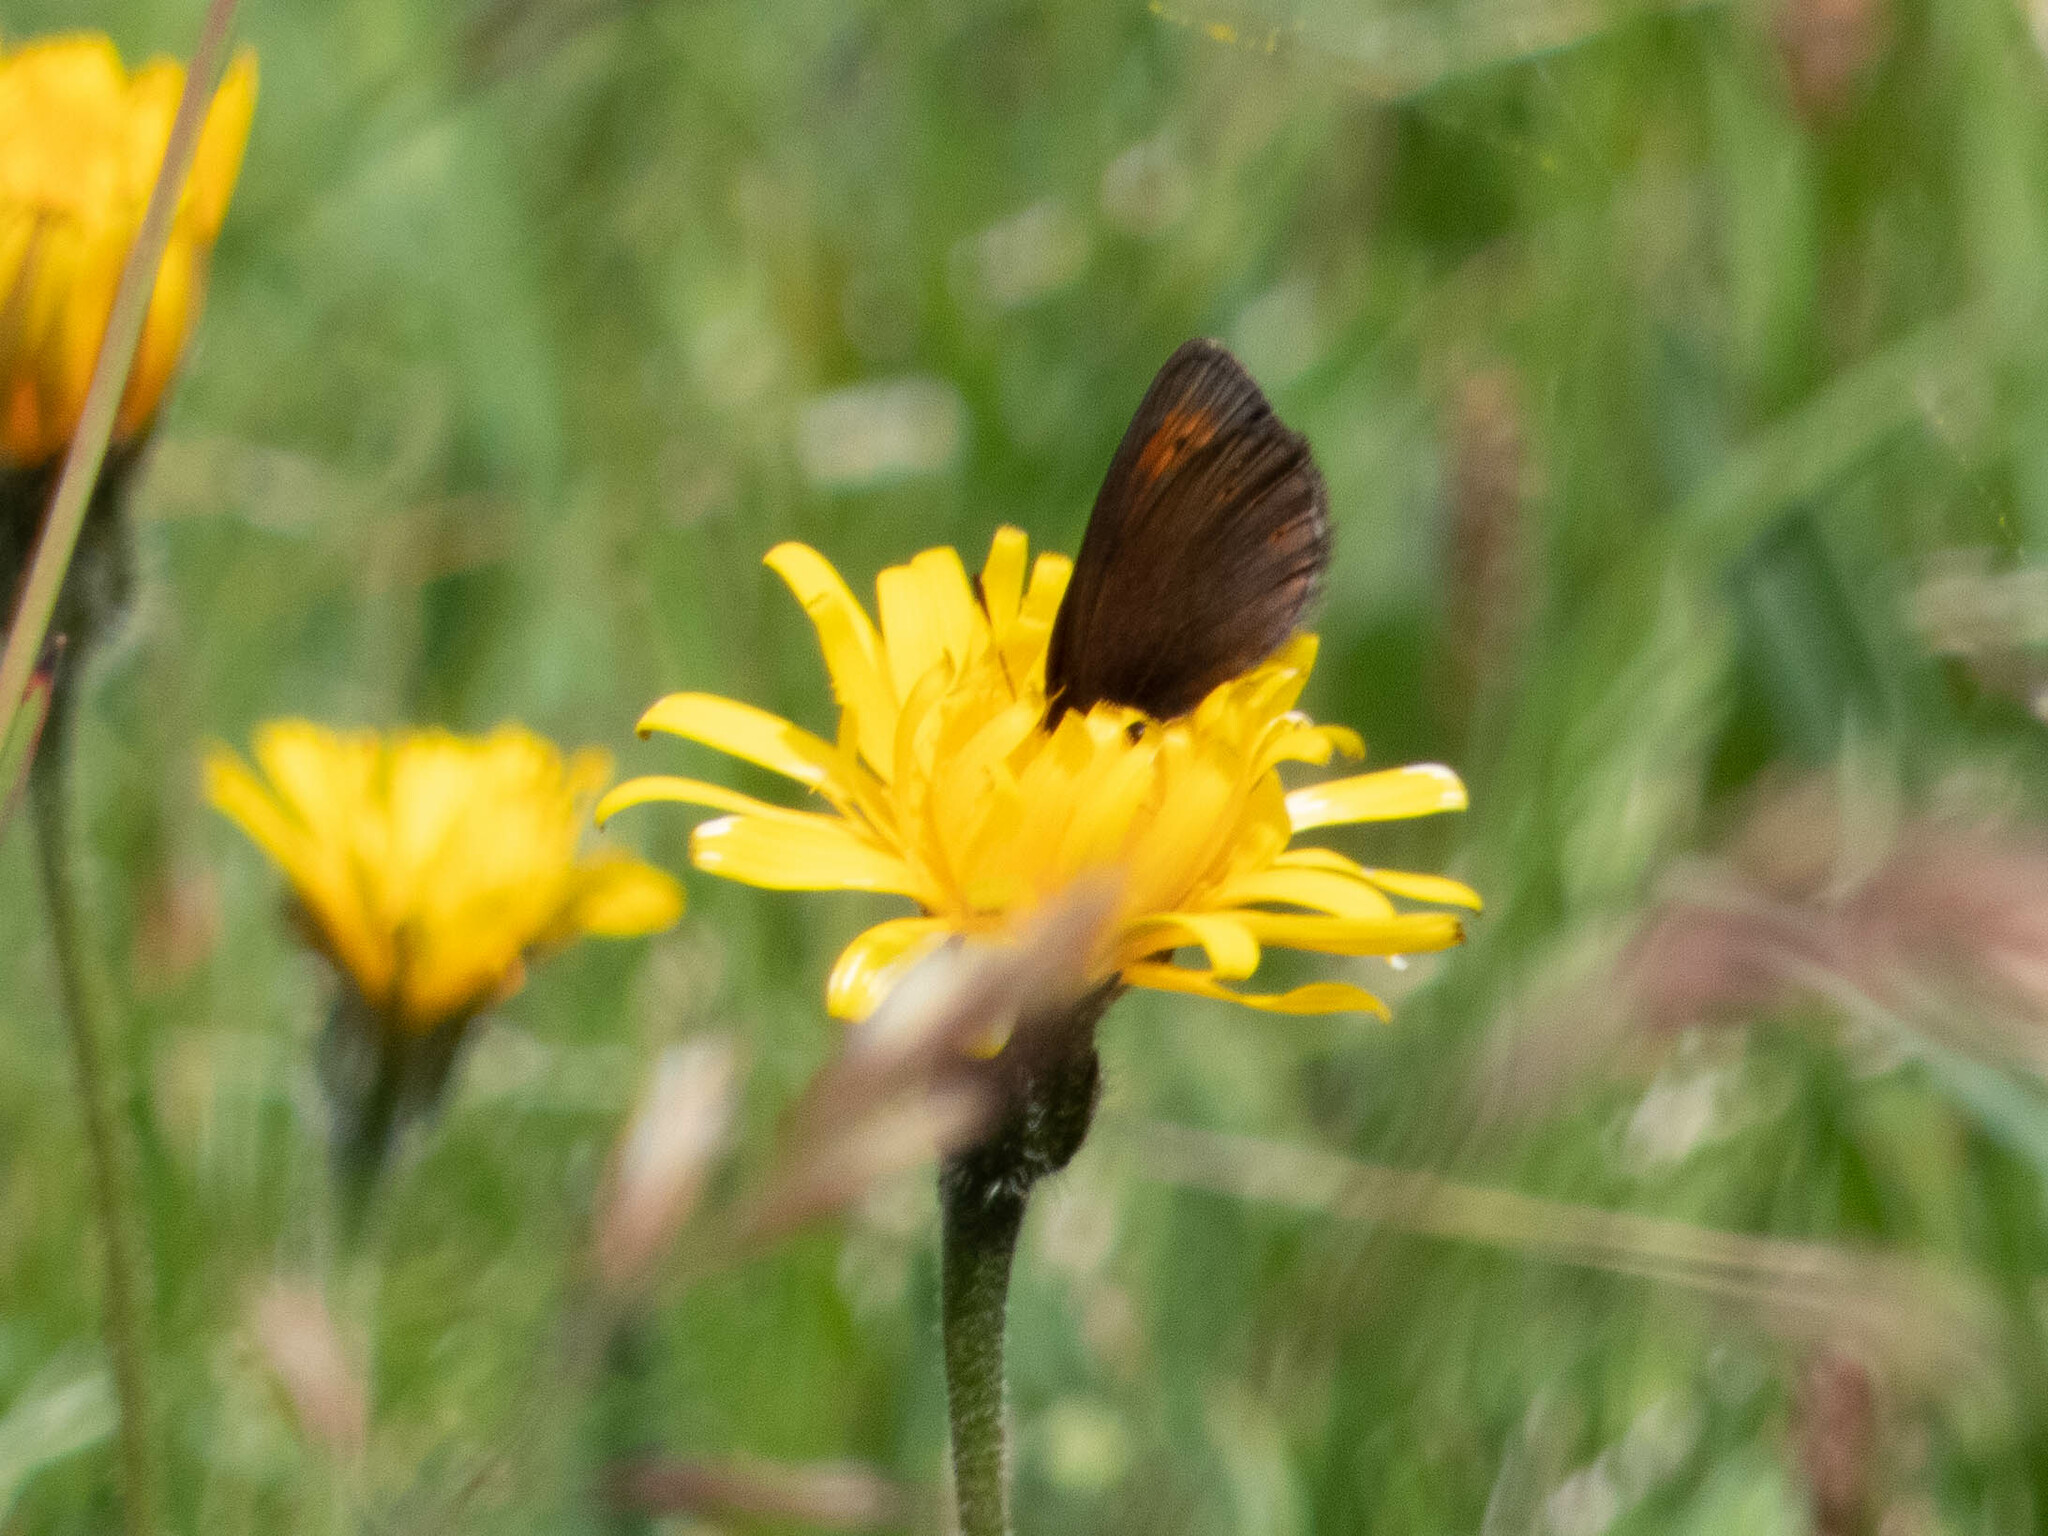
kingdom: Animalia
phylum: Arthropoda
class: Insecta
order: Lepidoptera
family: Nymphalidae
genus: Erebia
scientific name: Erebia epiphron
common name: Mountain ringlet
